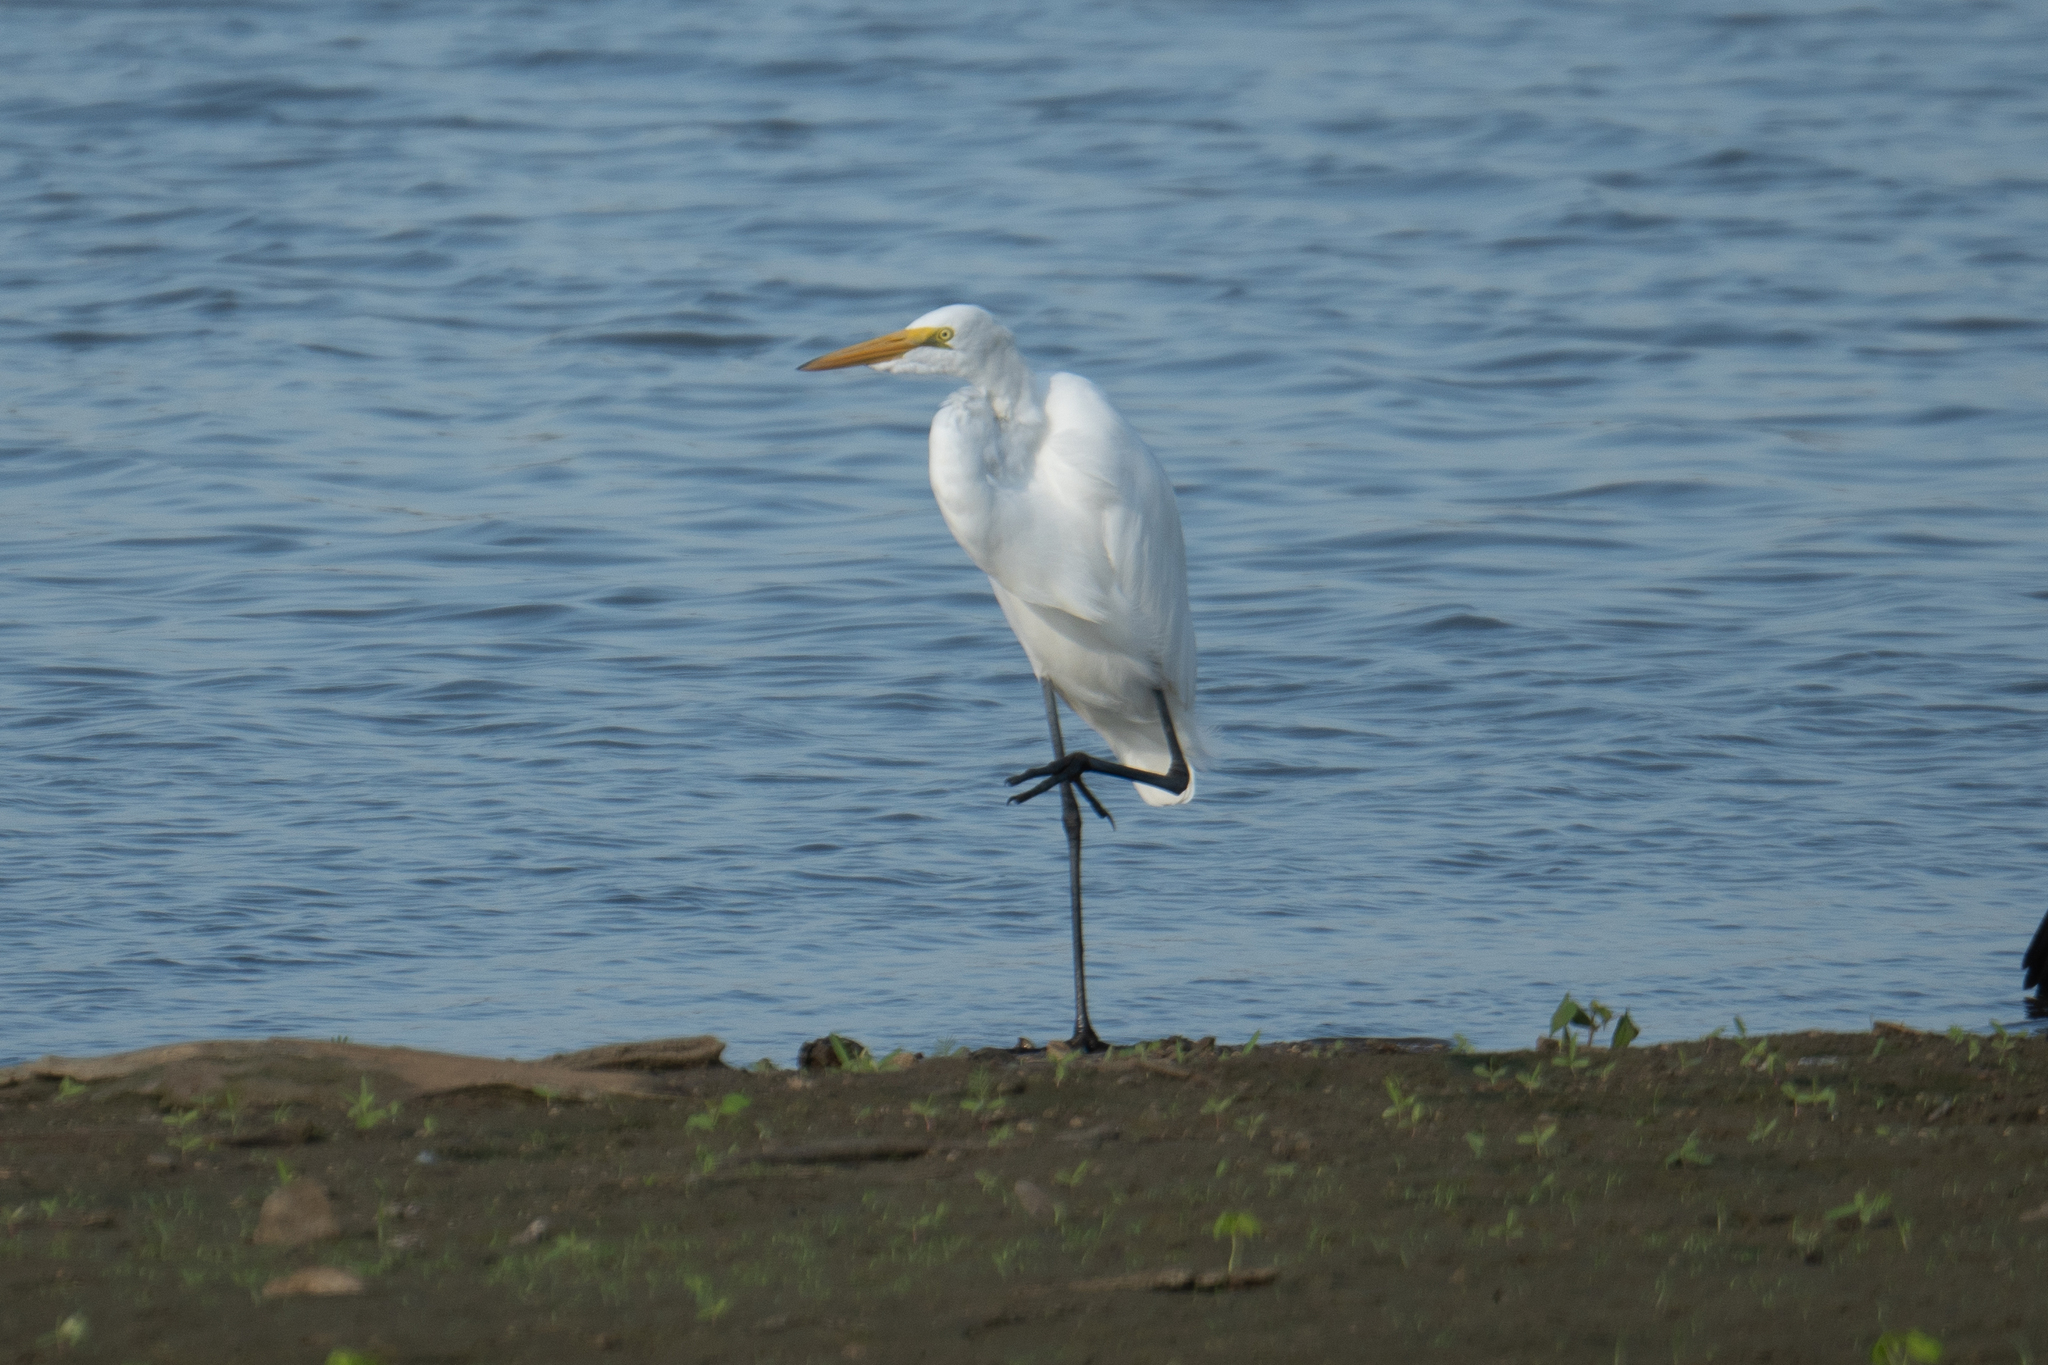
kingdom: Animalia
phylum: Chordata
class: Aves
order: Pelecaniformes
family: Ardeidae
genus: Ardea
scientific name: Ardea alba
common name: Great egret
